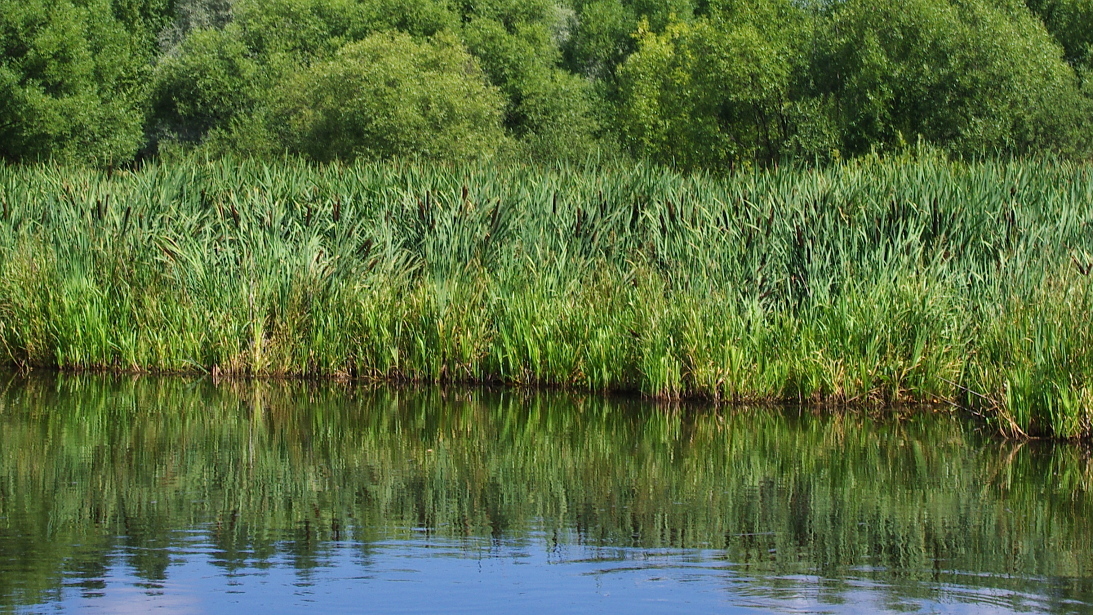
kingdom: Plantae
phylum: Tracheophyta
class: Liliopsida
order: Poales
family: Typhaceae
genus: Typha
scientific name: Typha latifolia
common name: Broadleaf cattail
